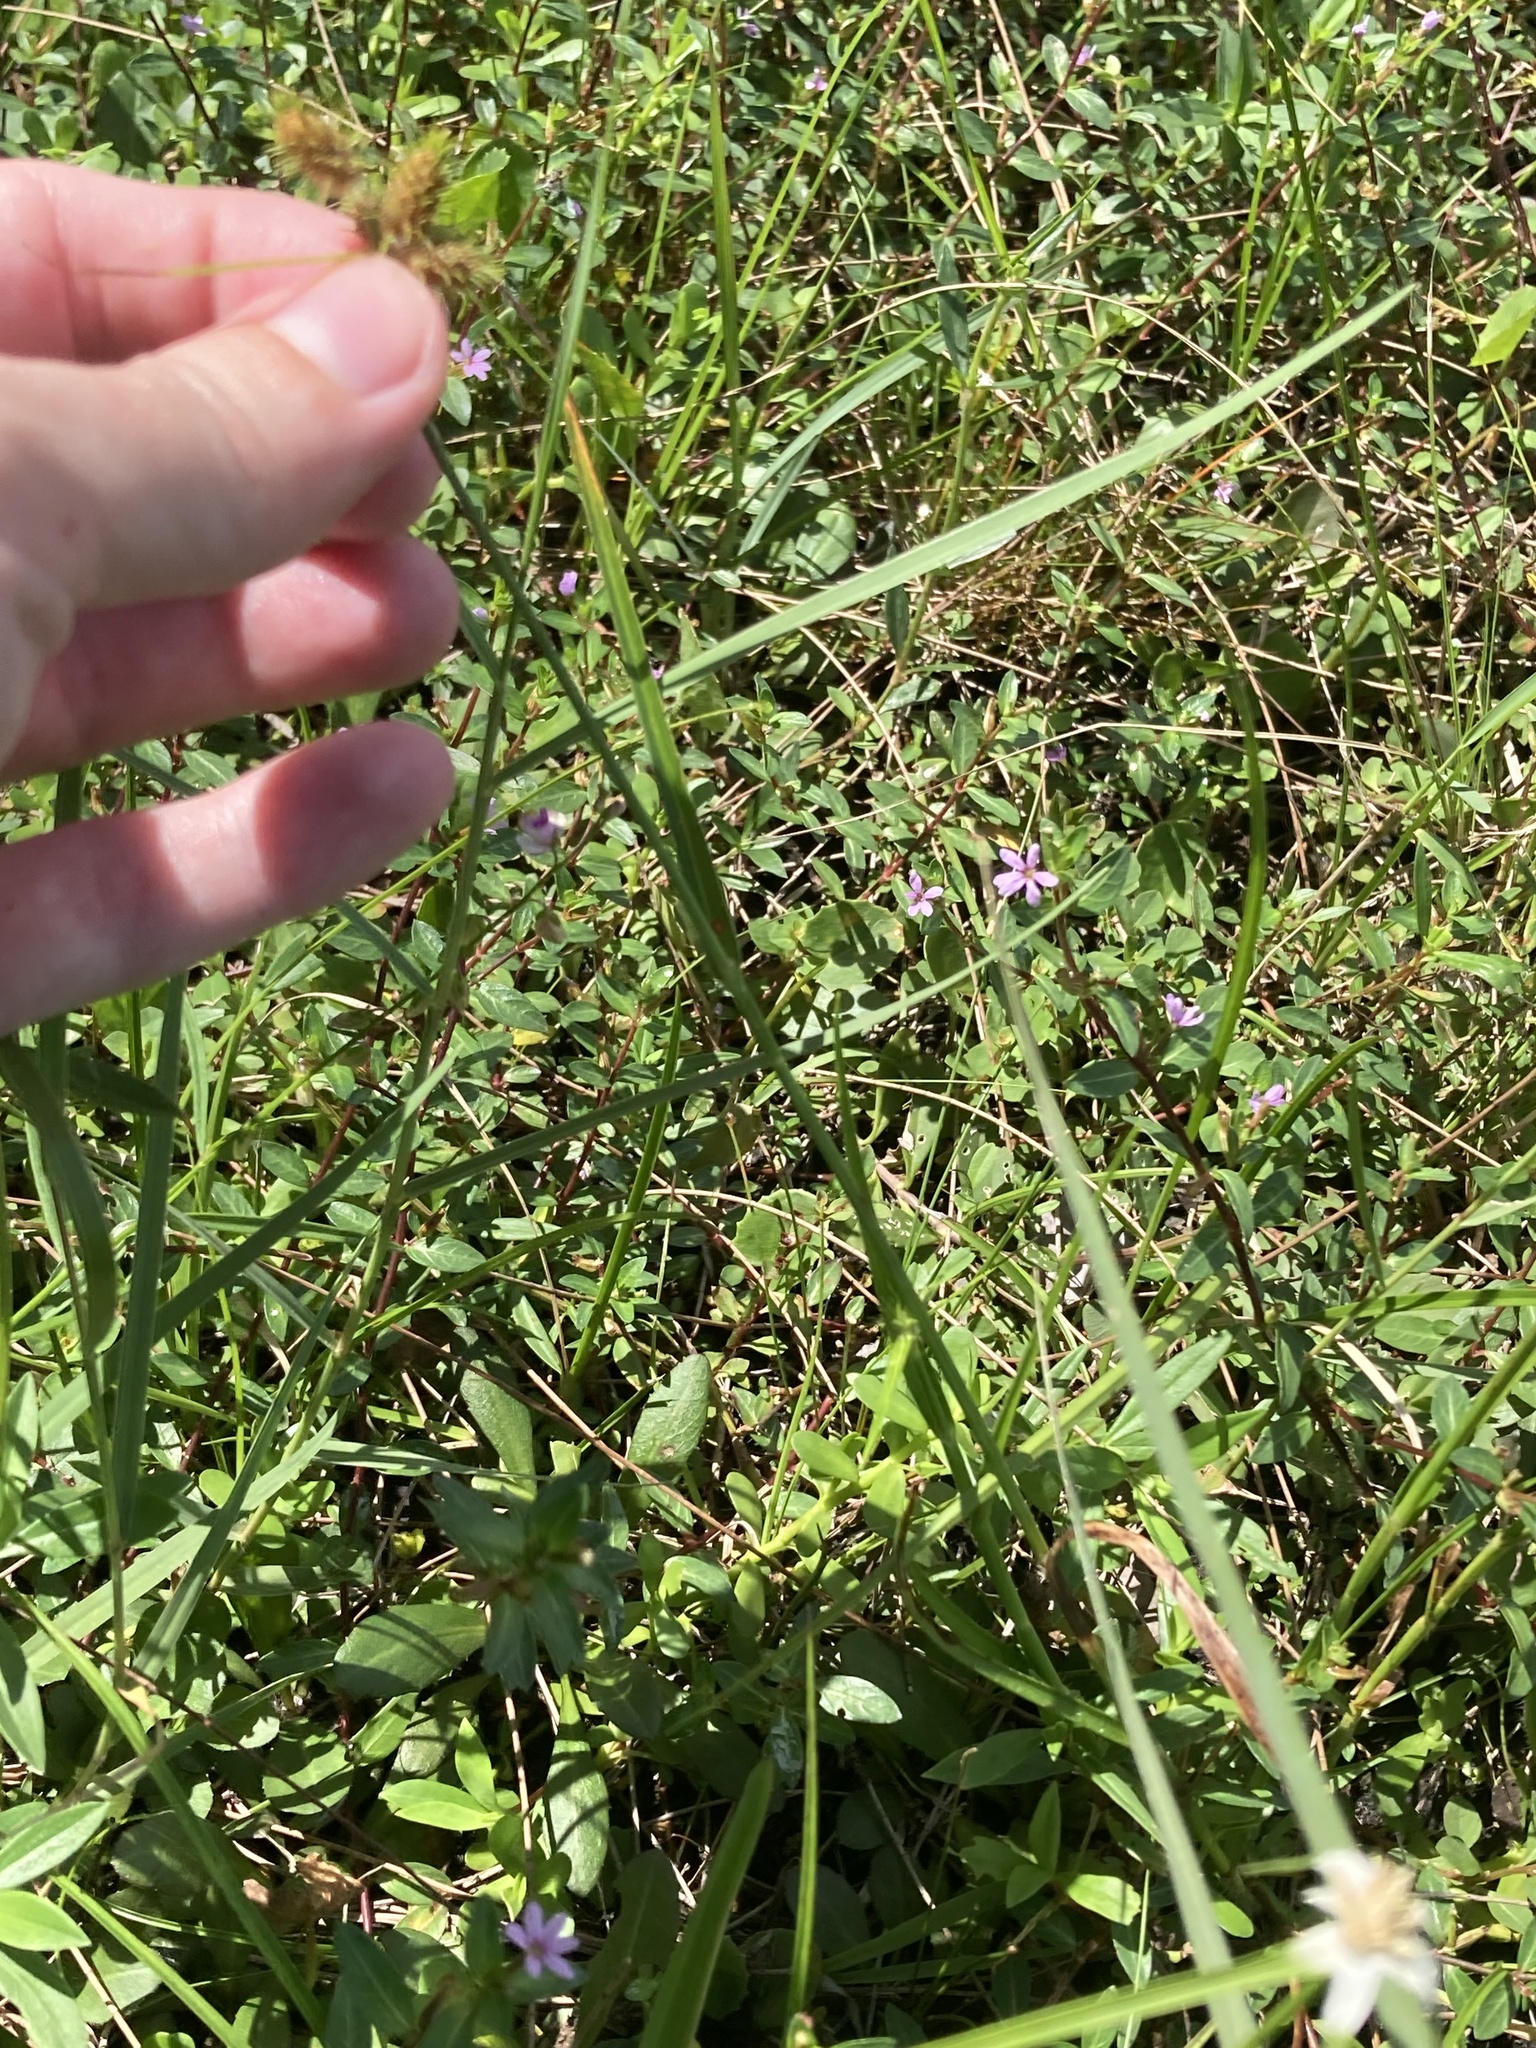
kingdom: Plantae
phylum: Tracheophyta
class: Liliopsida
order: Poales
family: Cyperaceae
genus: Fuirena
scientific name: Fuirena breviseta
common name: Saltmarsh umbrella sedge
